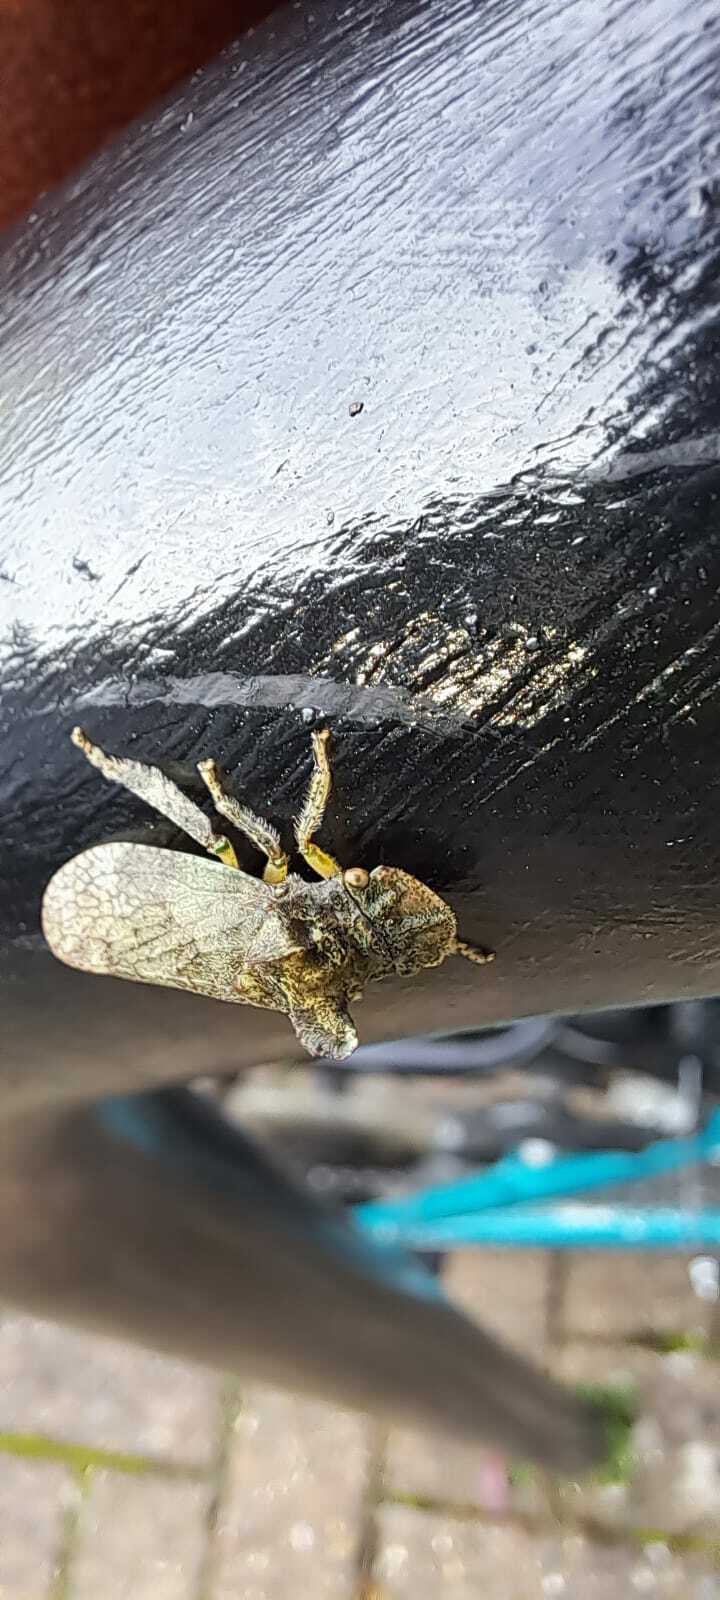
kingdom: Animalia
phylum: Arthropoda
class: Insecta
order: Hemiptera
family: Cicadellidae
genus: Ledra
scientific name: Ledra aurita
